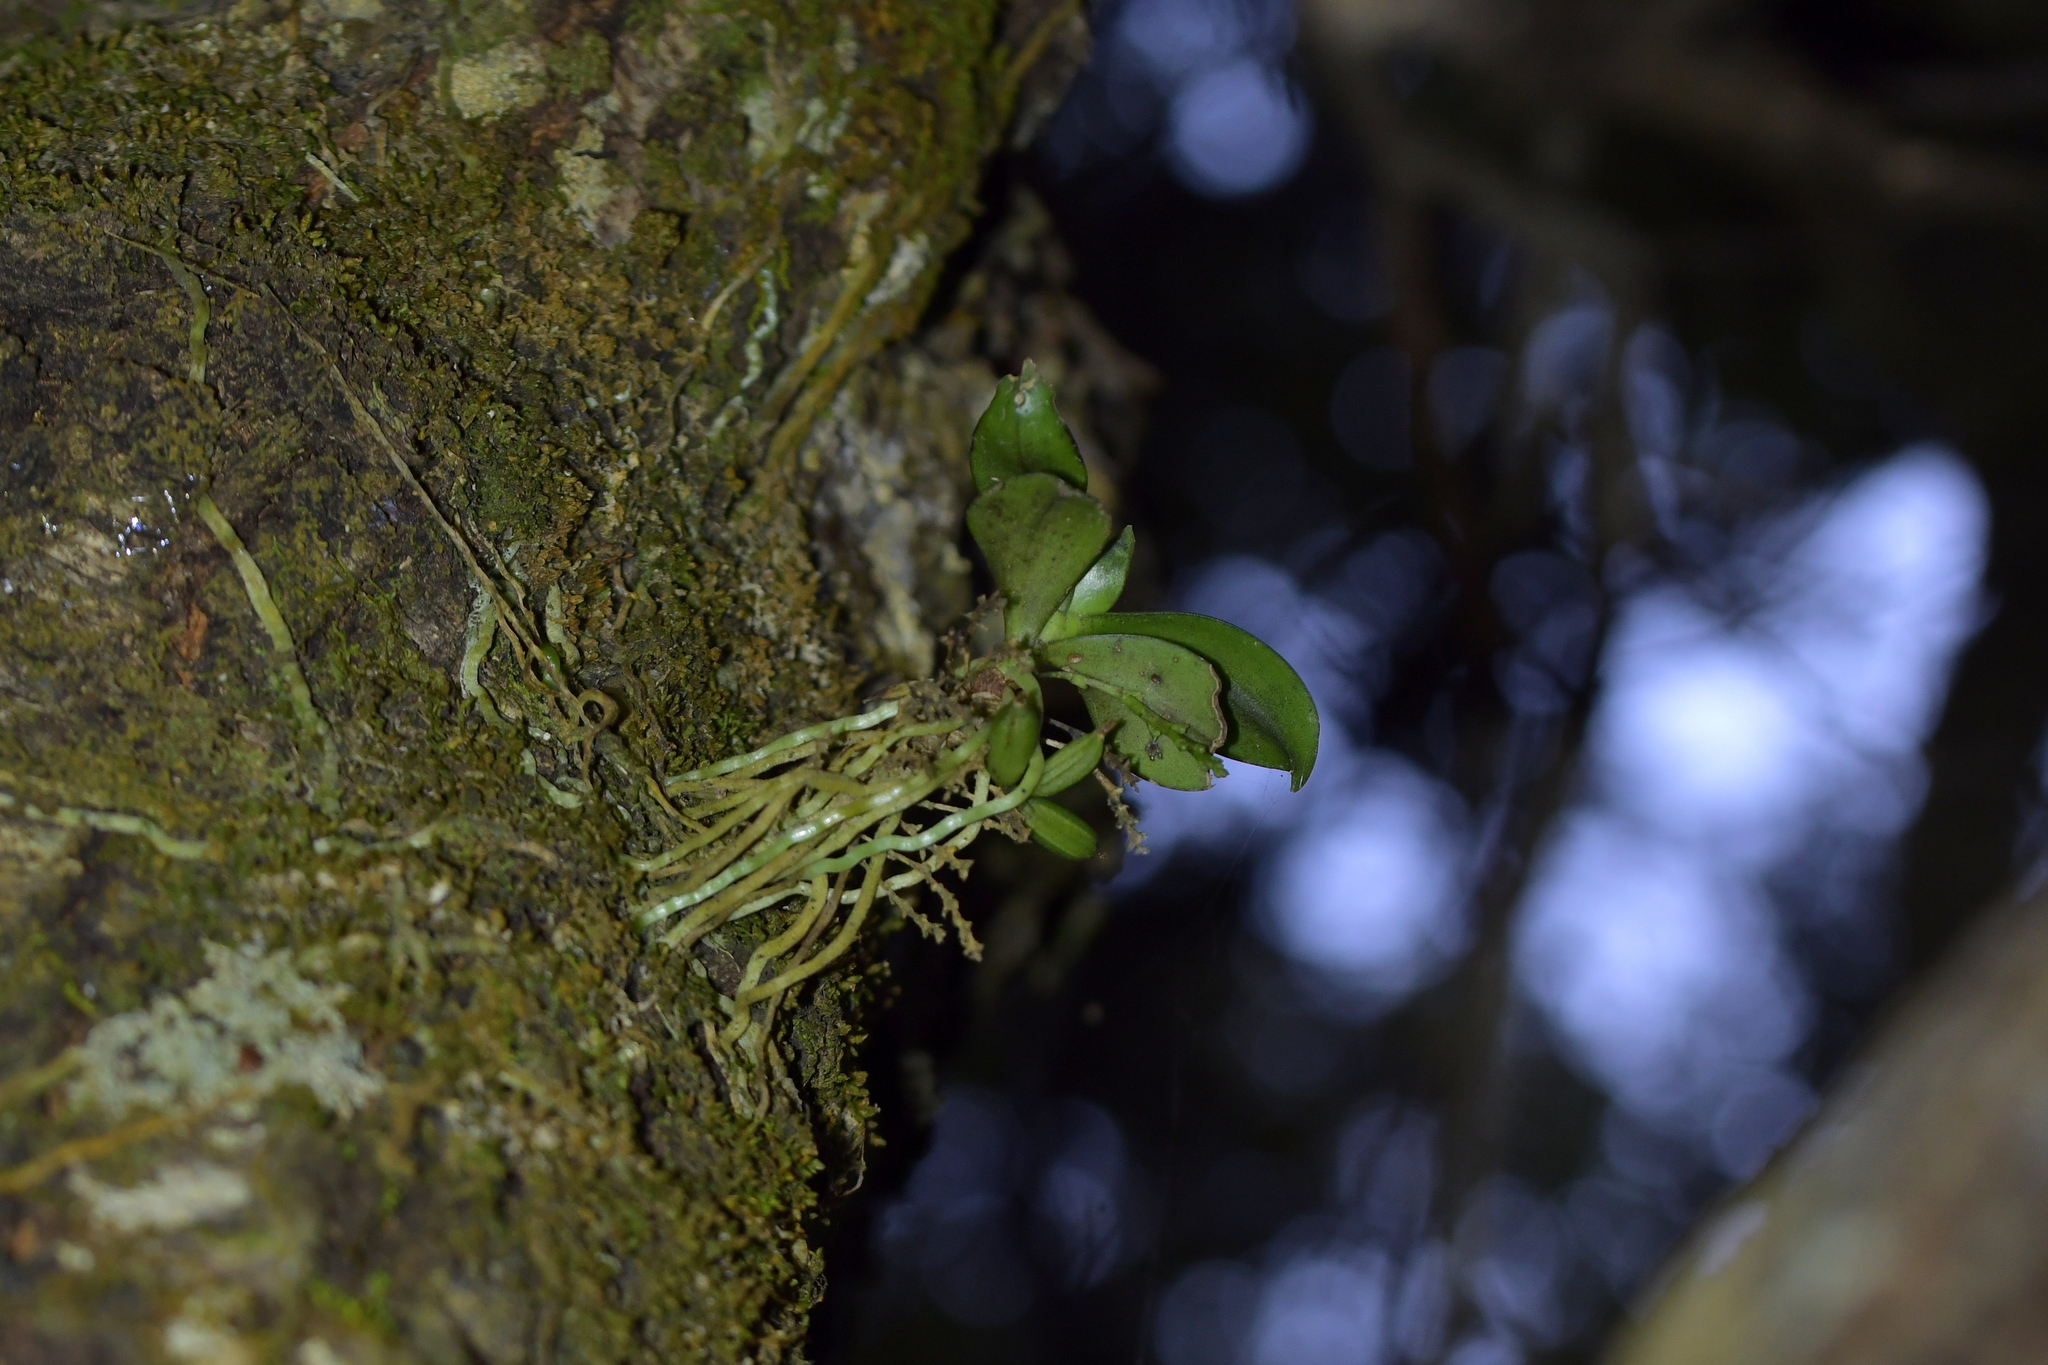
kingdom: Plantae
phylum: Tracheophyta
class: Liliopsida
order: Asparagales
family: Orchidaceae
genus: Drymoanthus
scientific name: Drymoanthus adversus
